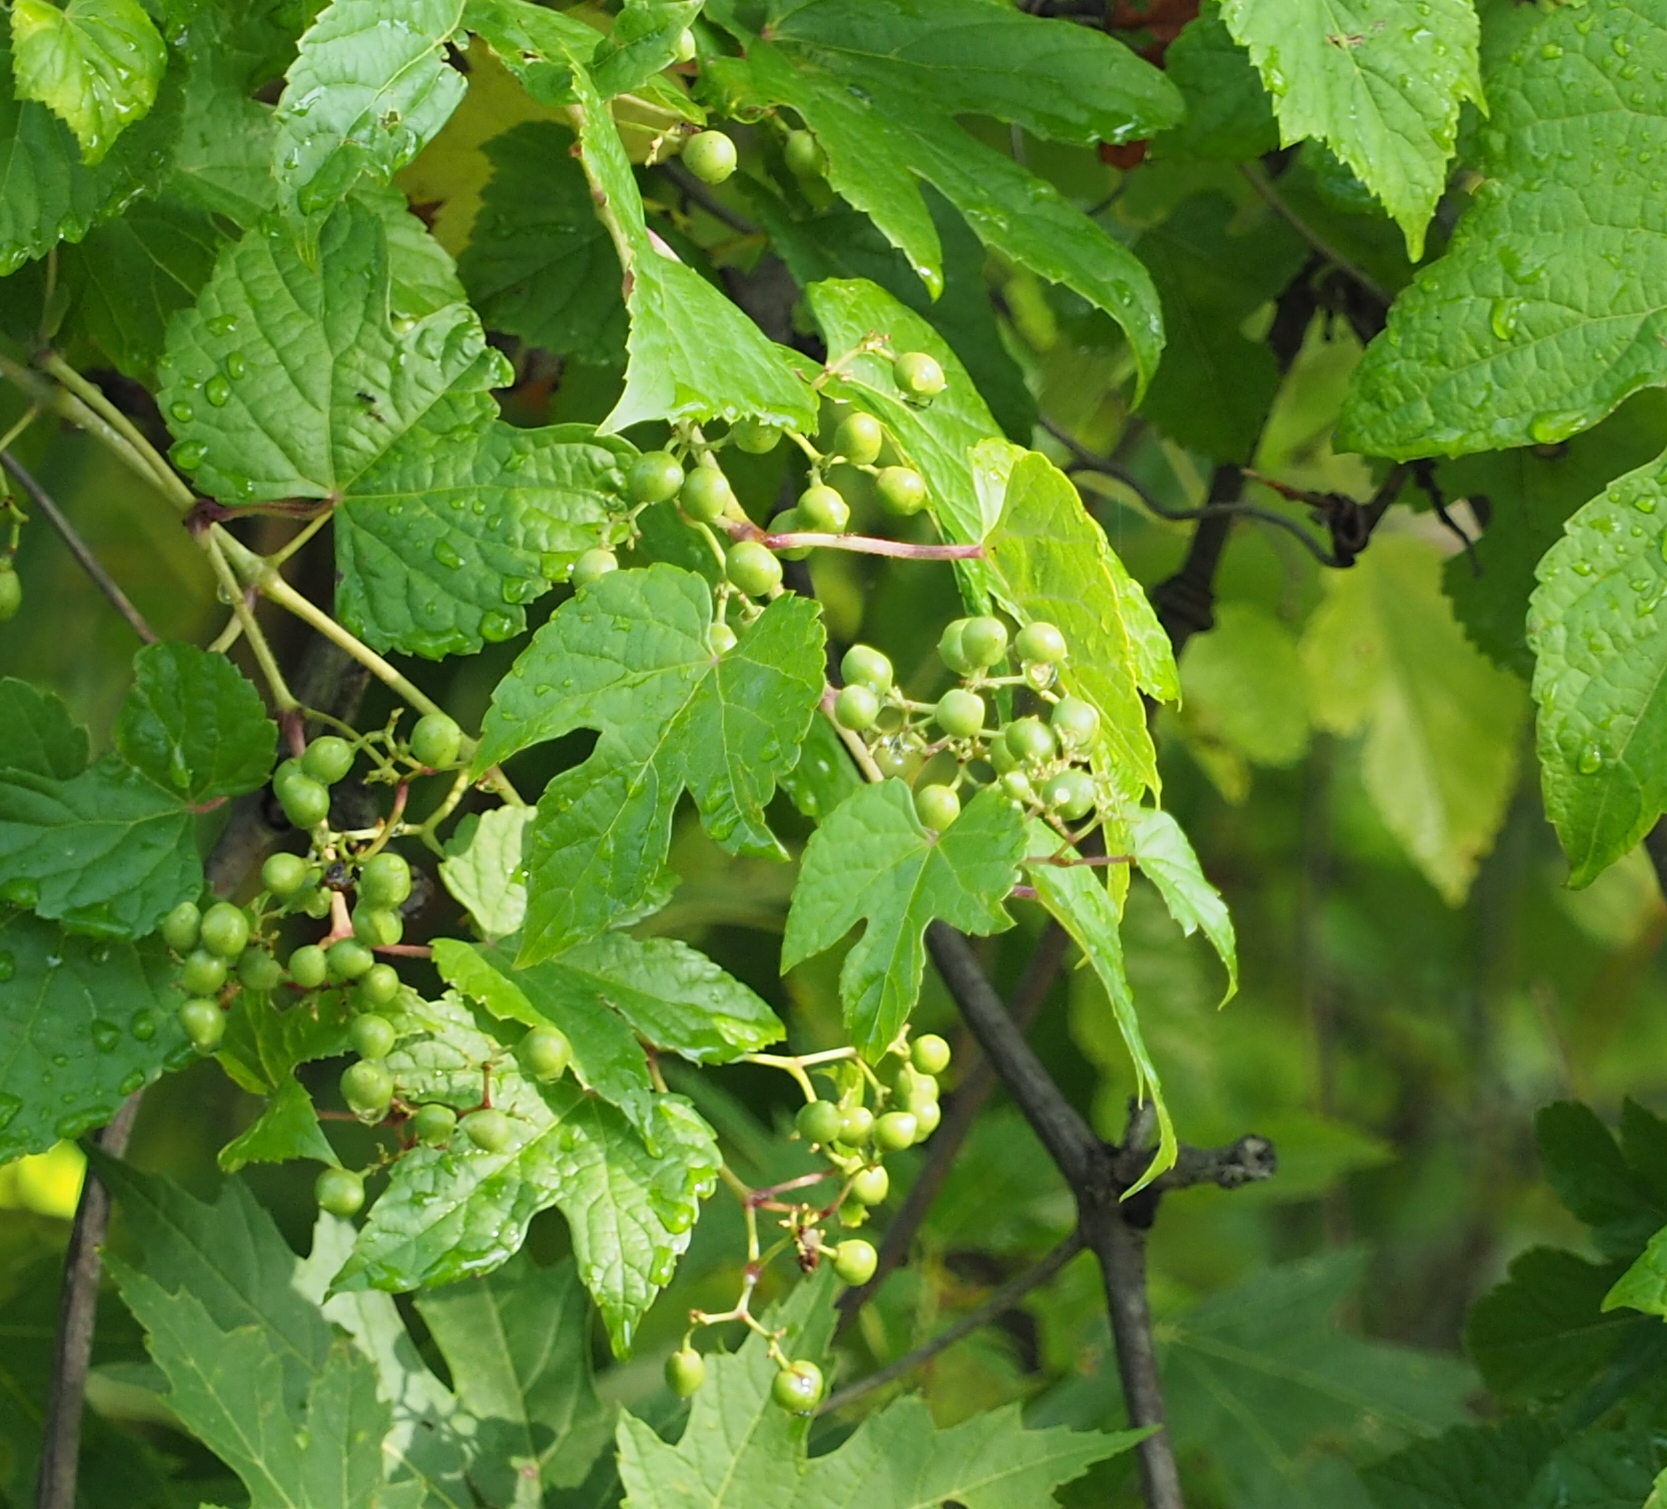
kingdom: Plantae
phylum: Tracheophyta
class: Magnoliopsida
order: Vitales
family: Vitaceae
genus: Ampelopsis
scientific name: Ampelopsis glandulosa
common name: Amur peppervine
